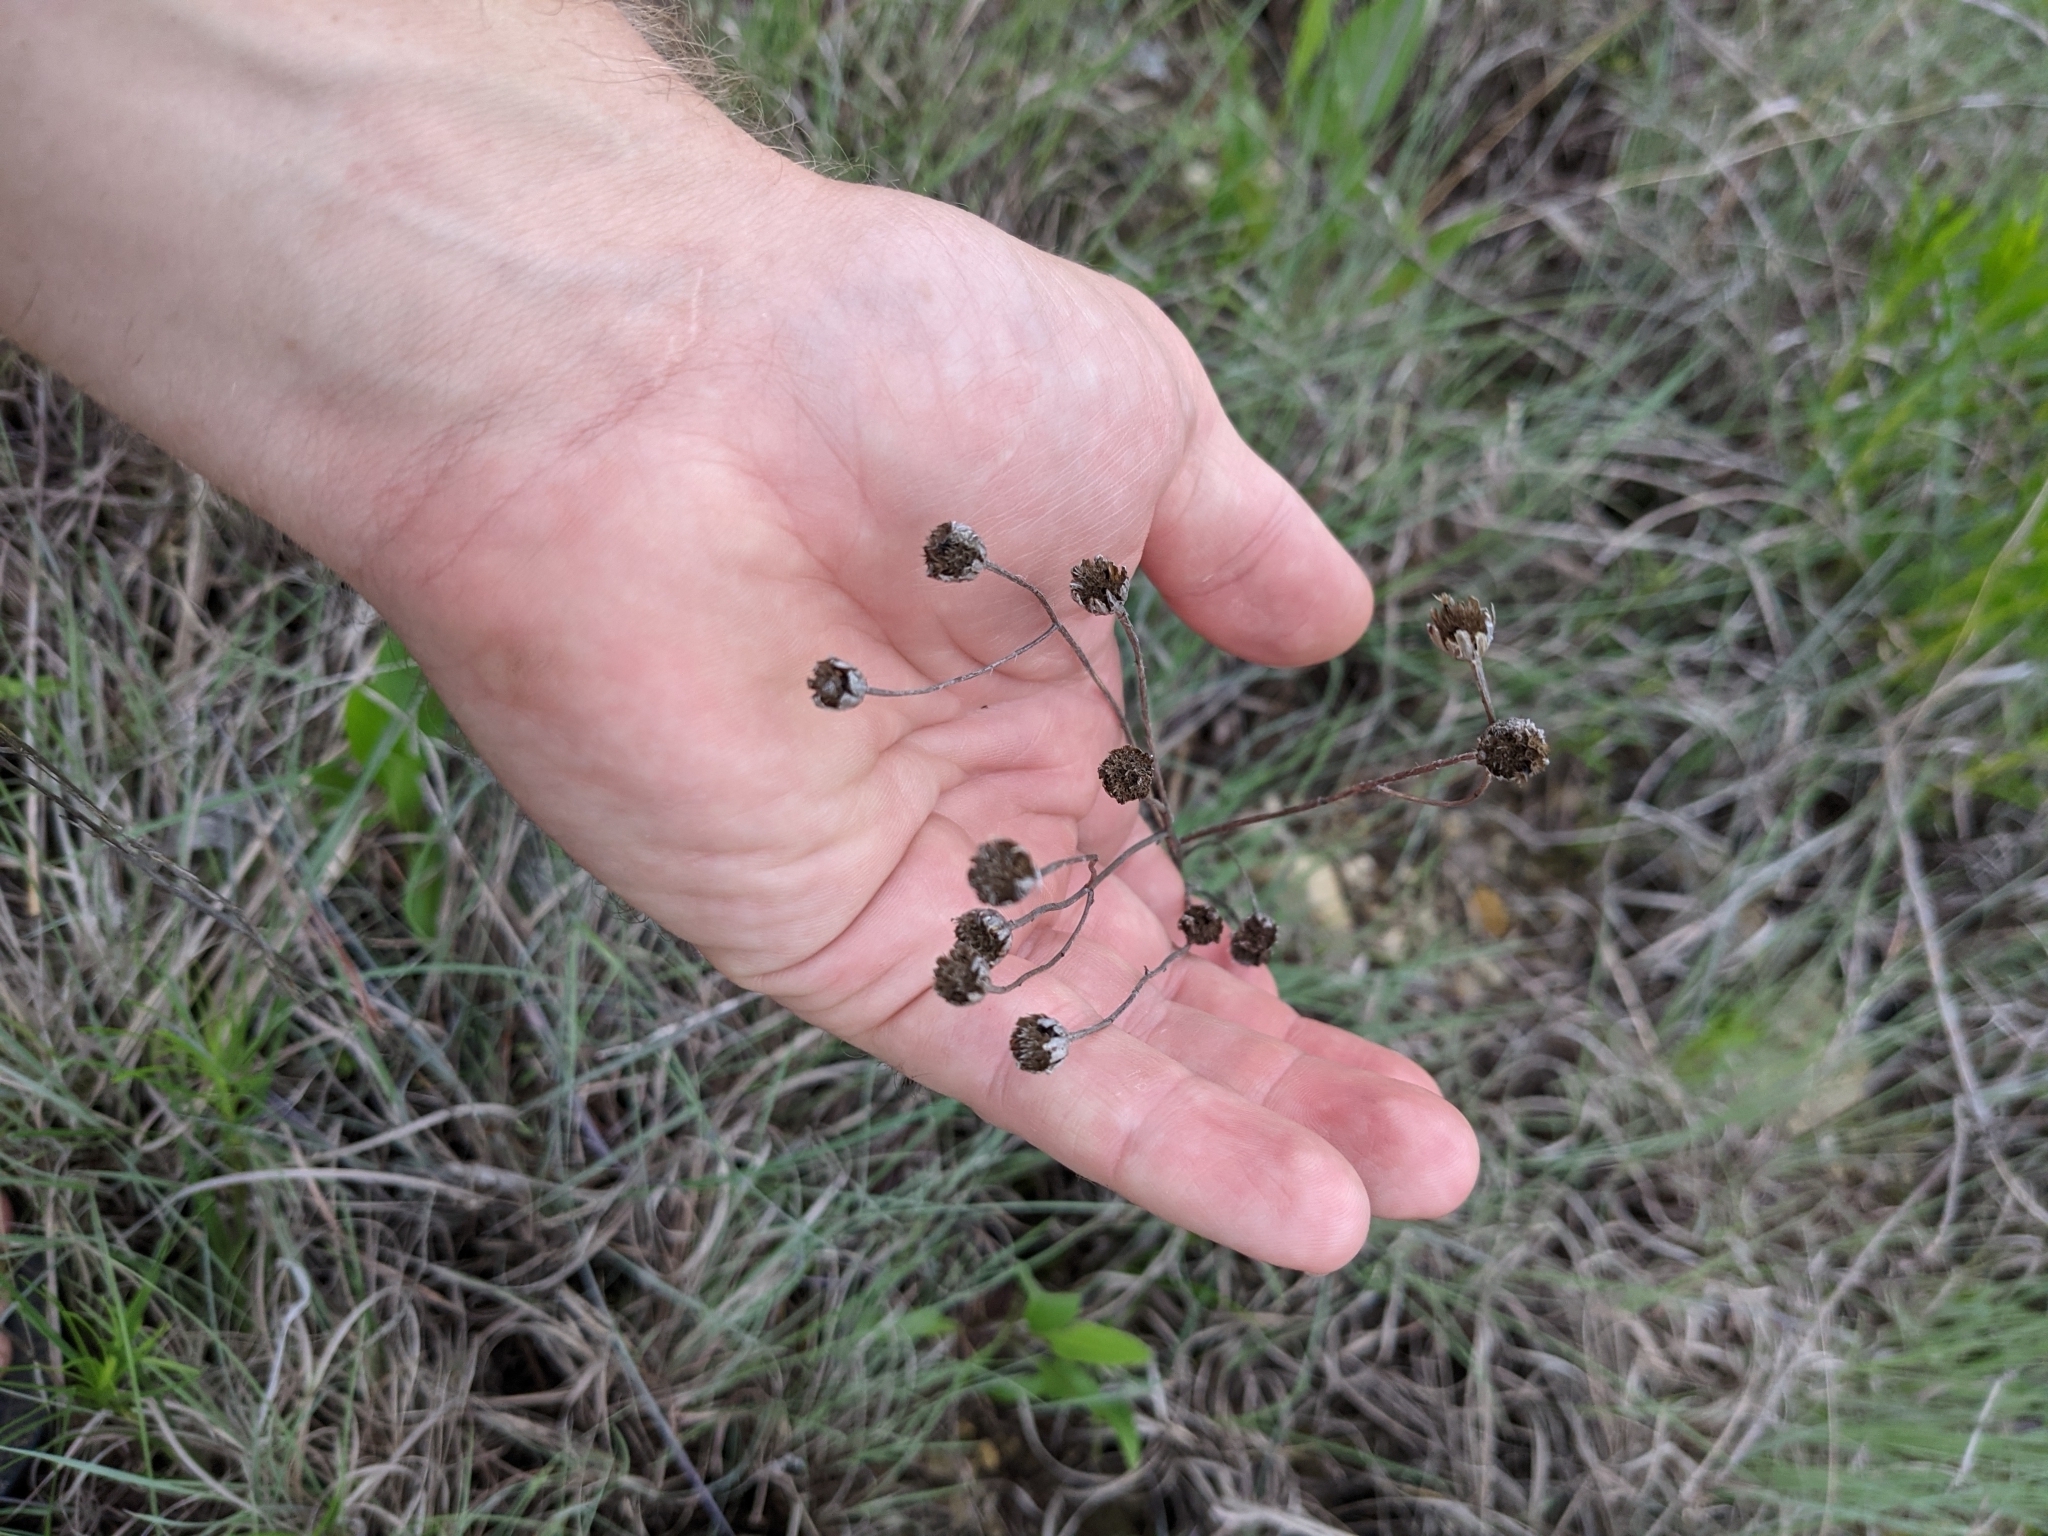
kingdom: Plantae
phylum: Tracheophyta
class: Magnoliopsida
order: Asterales
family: Asteraceae
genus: Dysodiopsis
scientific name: Dysodiopsis tagetoides
